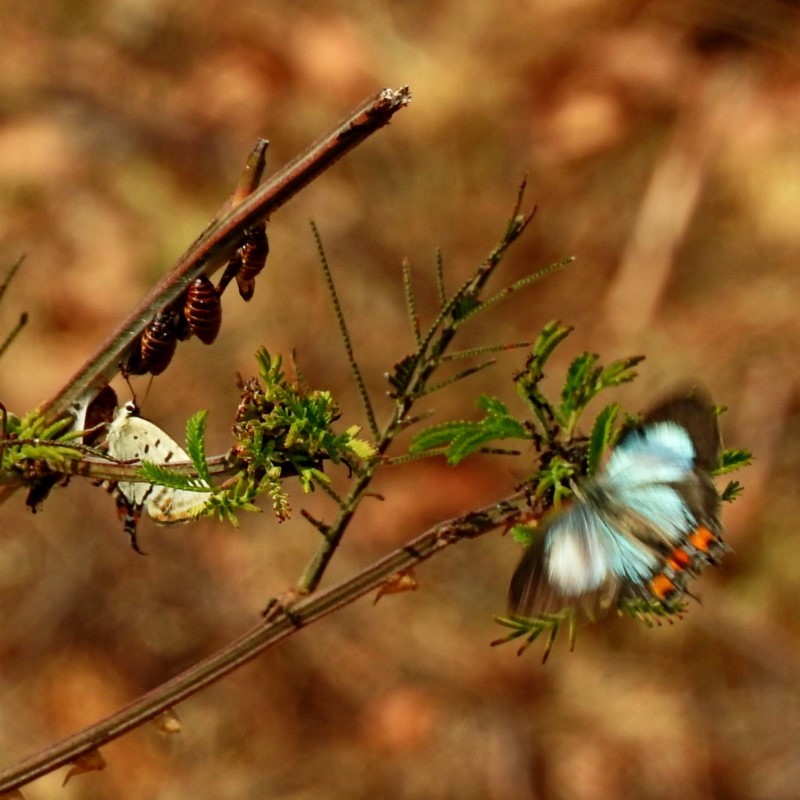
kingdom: Animalia
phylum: Arthropoda
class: Insecta
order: Lepidoptera
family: Lycaenidae
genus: Jalmenus
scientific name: Jalmenus evagoras
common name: Common imperial blue
